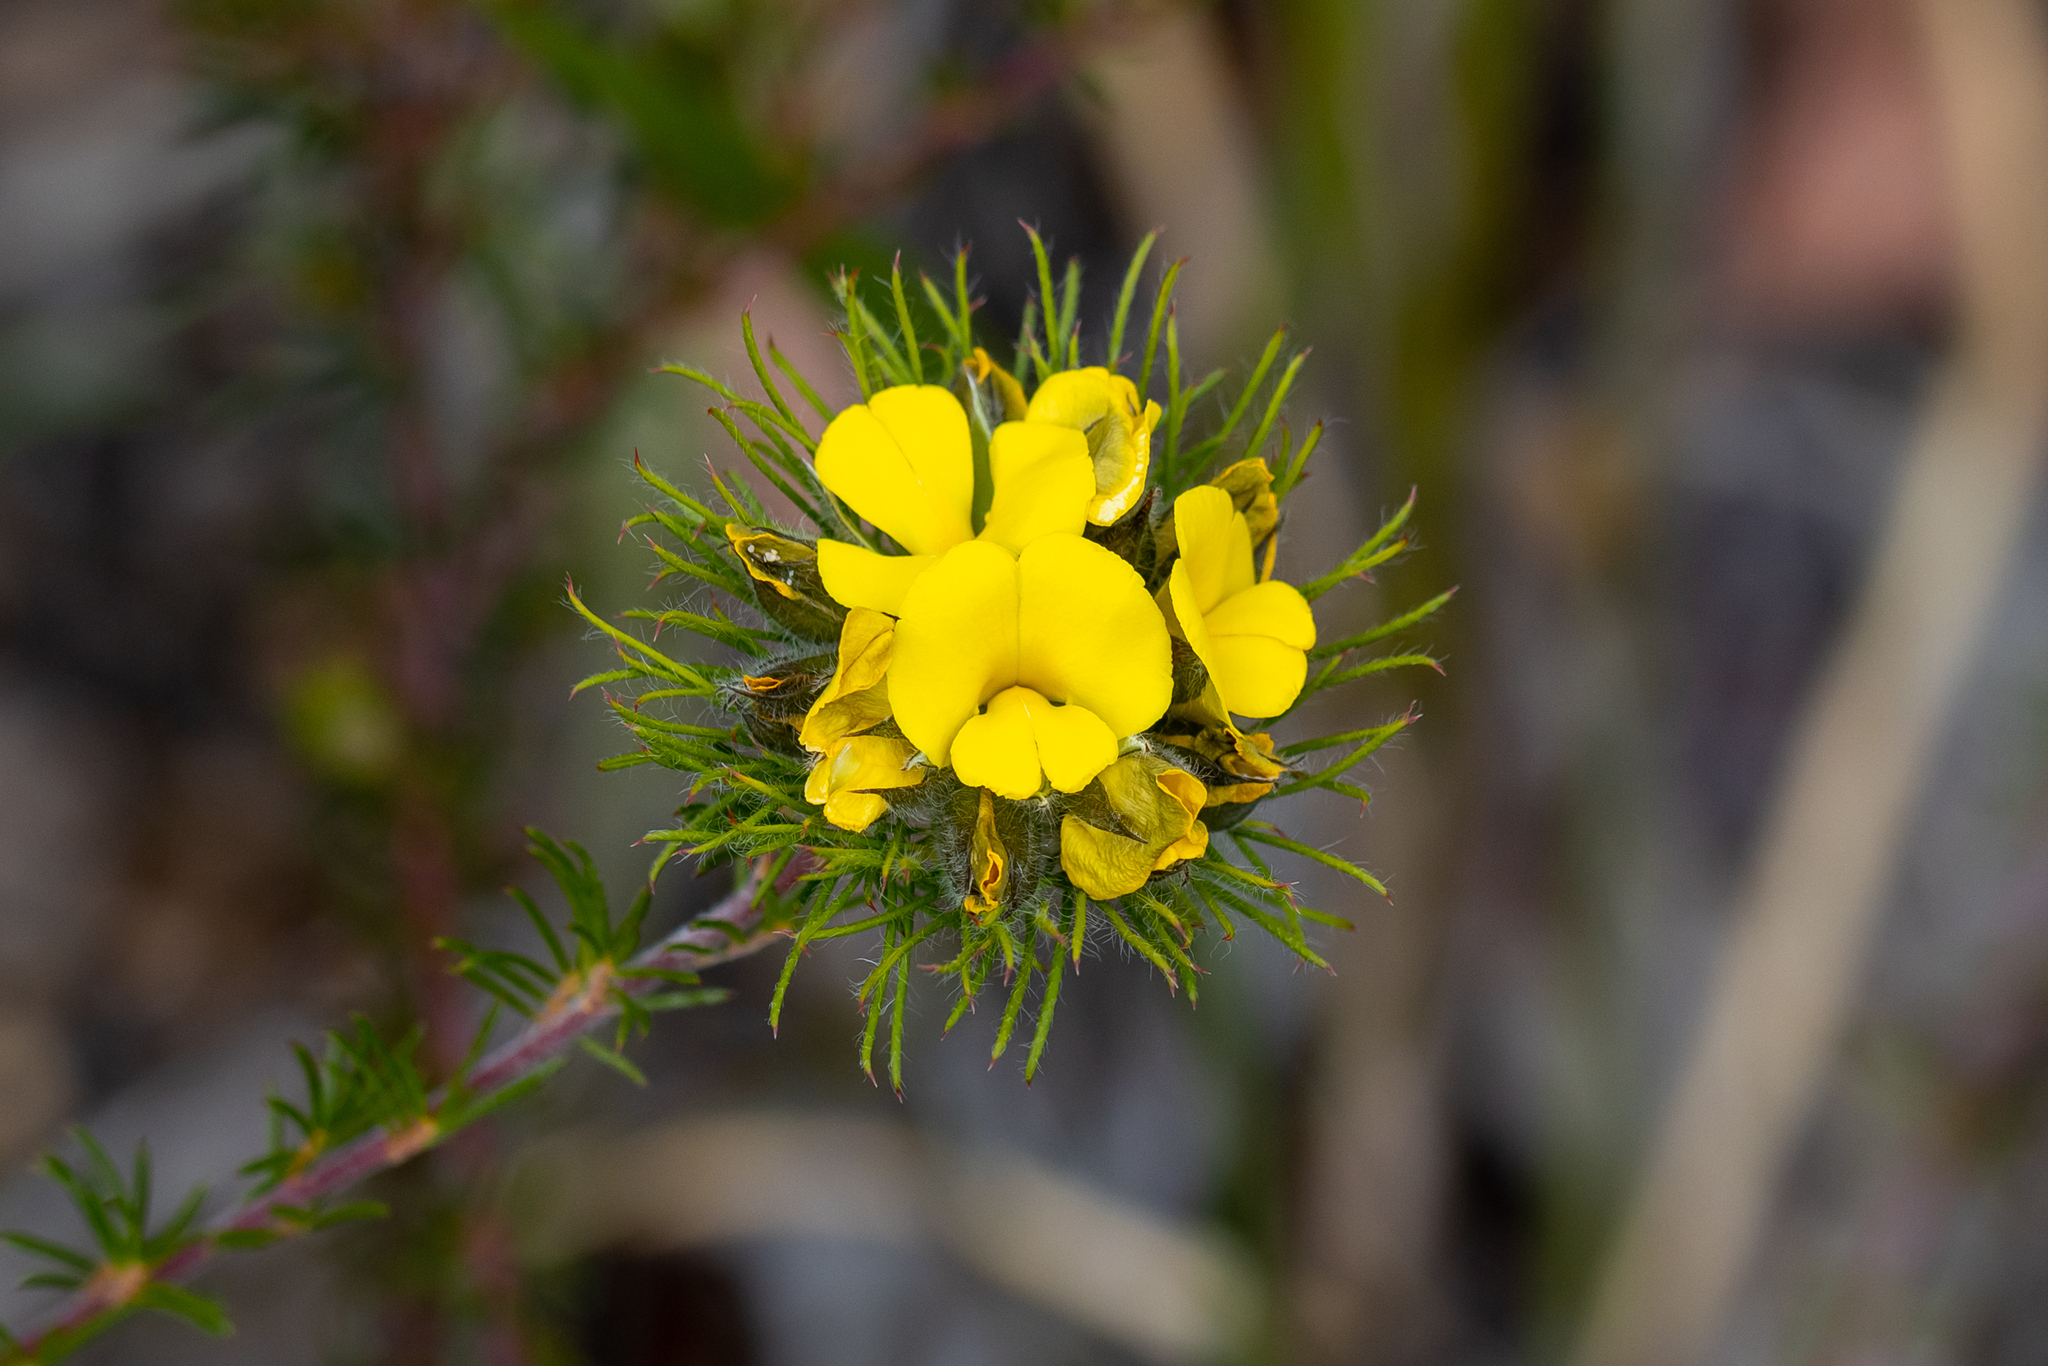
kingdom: Plantae
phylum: Tracheophyta
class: Magnoliopsida
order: Fabales
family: Fabaceae
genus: Gompholobium
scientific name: Gompholobium capitatum
